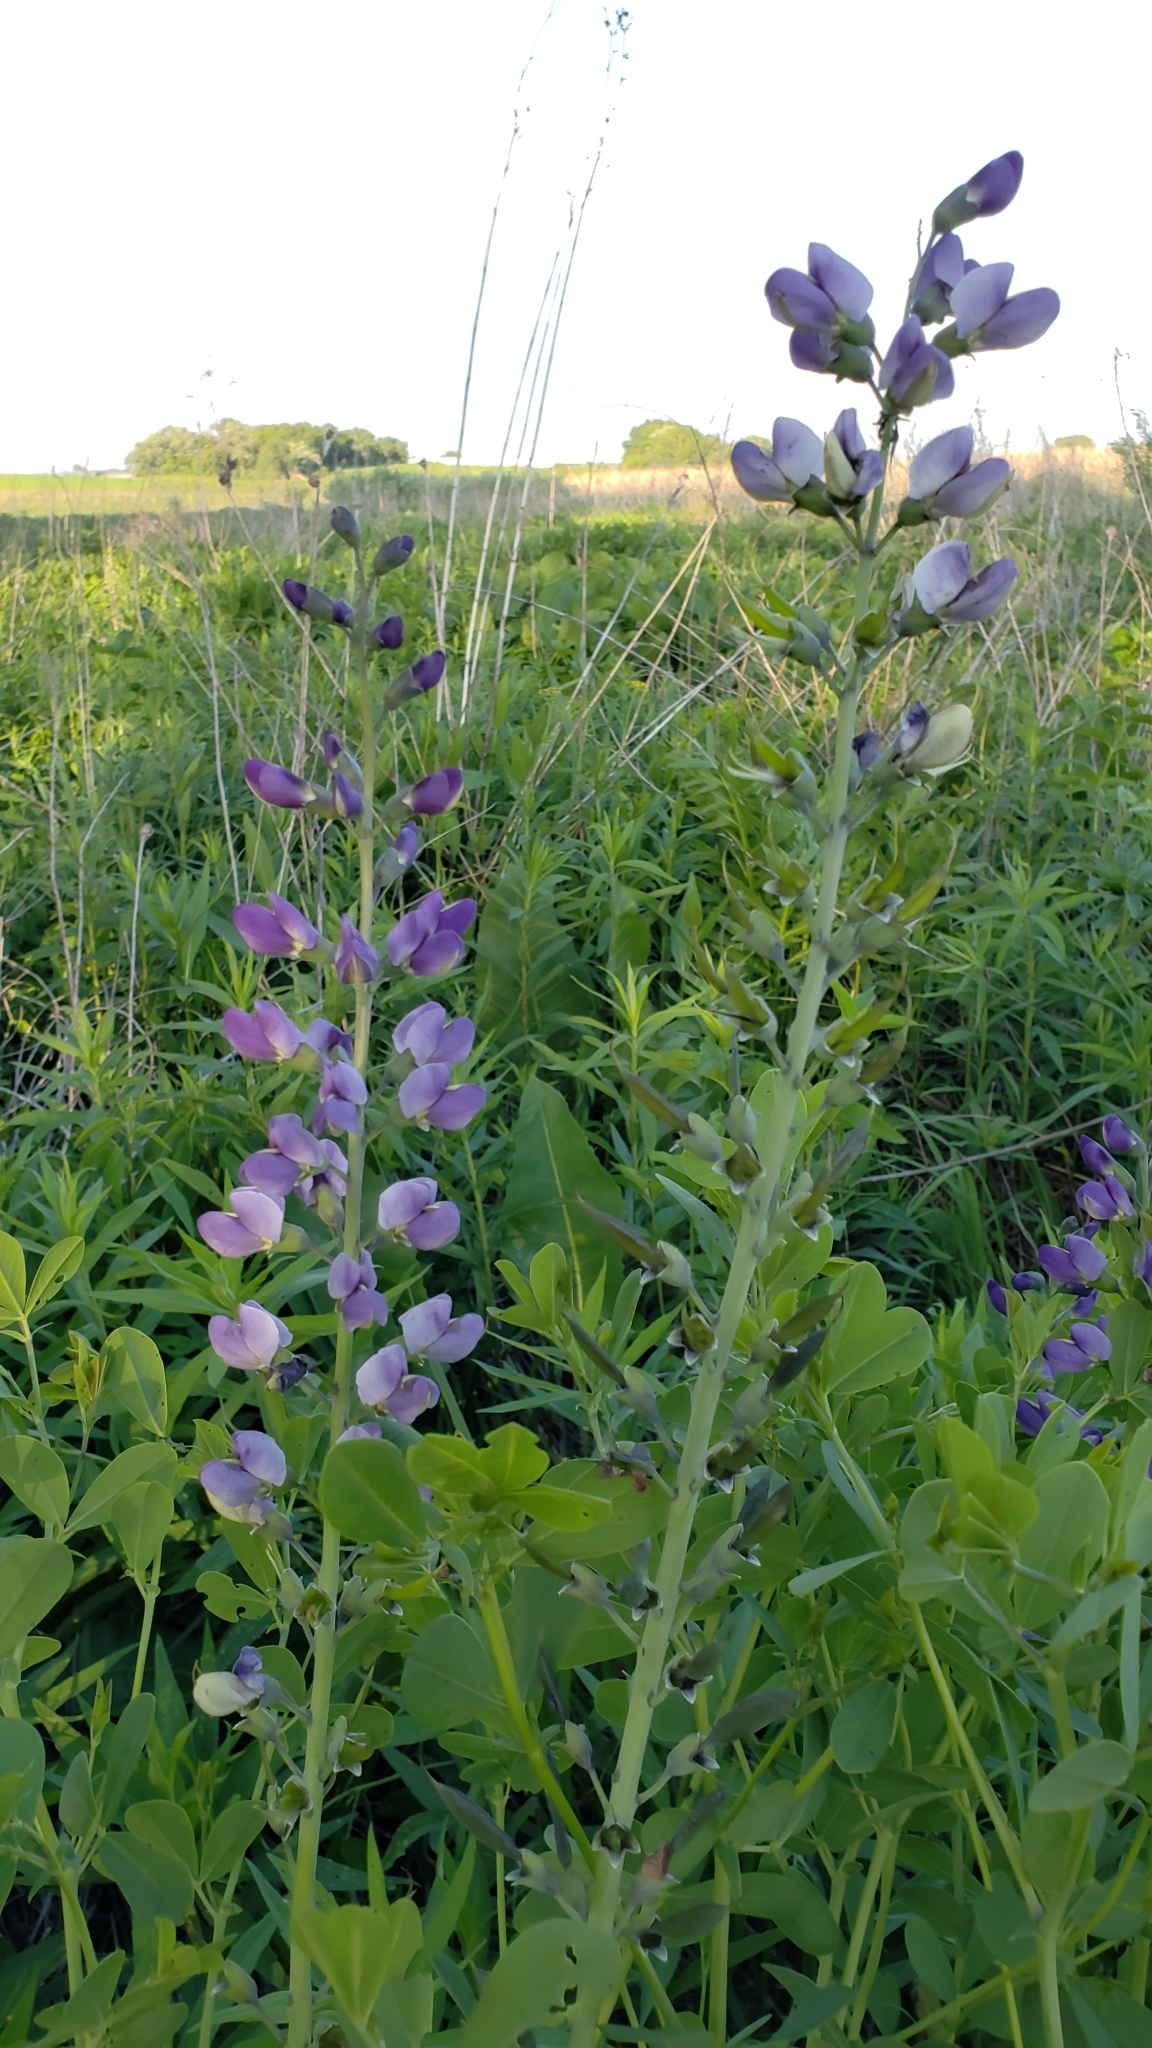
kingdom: Plantae
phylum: Tracheophyta
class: Magnoliopsida
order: Fabales
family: Fabaceae
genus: Baptisia
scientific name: Baptisia australis
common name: Blue false indigo
